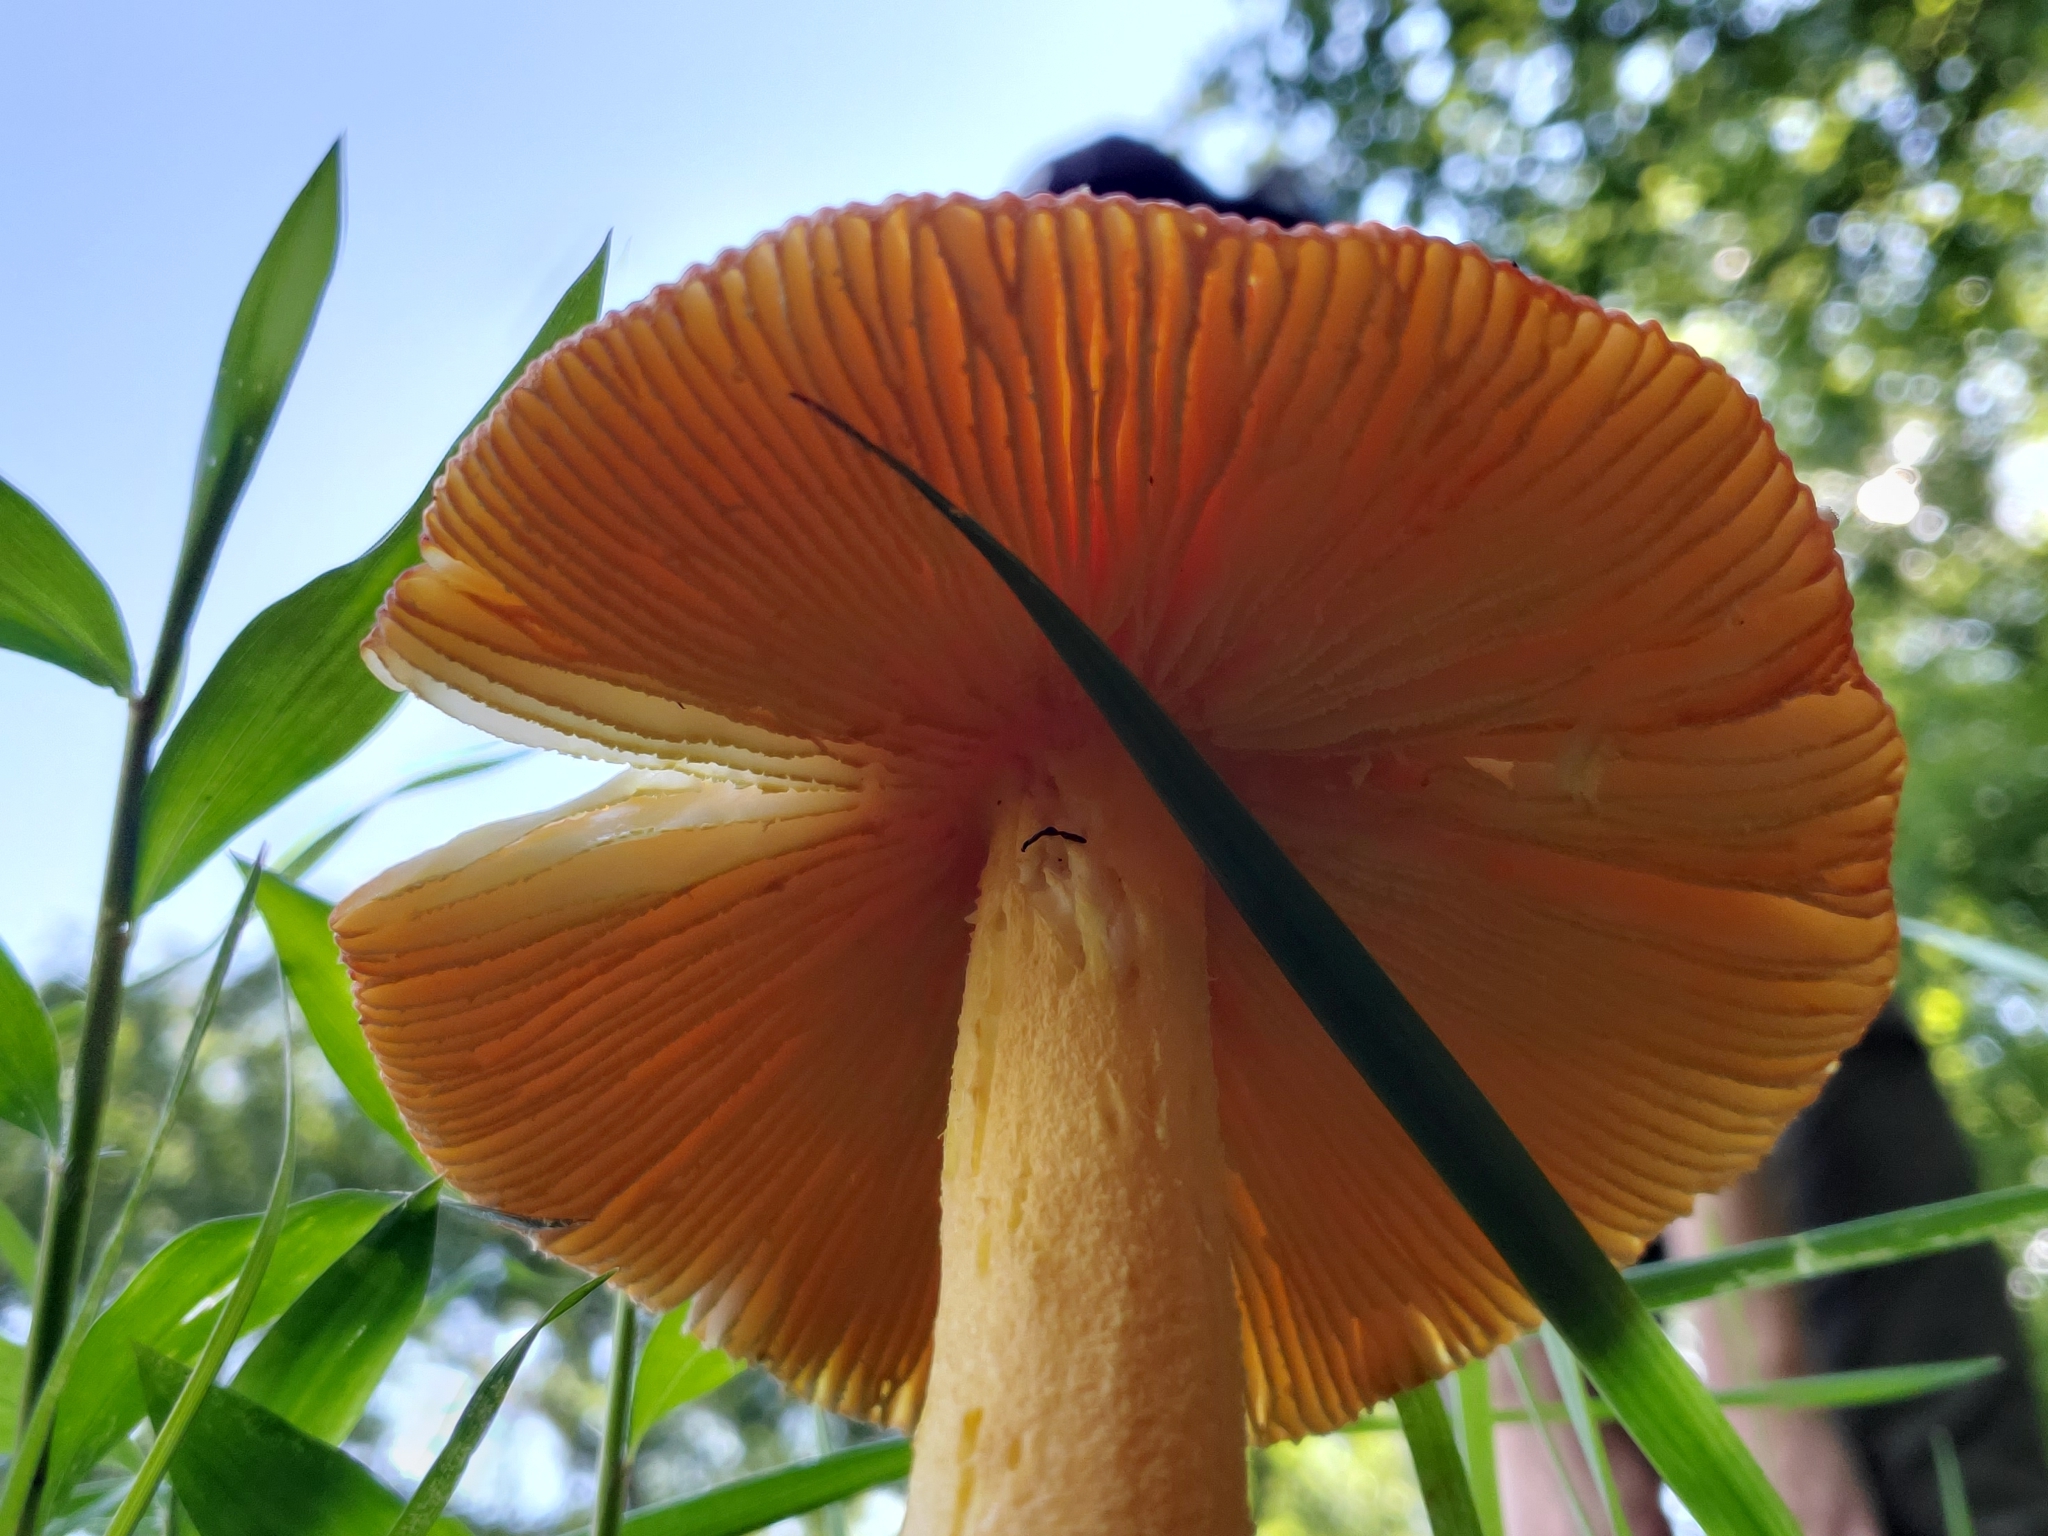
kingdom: Fungi
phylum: Basidiomycota
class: Agaricomycetes
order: Agaricales
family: Amanitaceae
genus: Amanita
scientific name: Amanita parcivolvata
